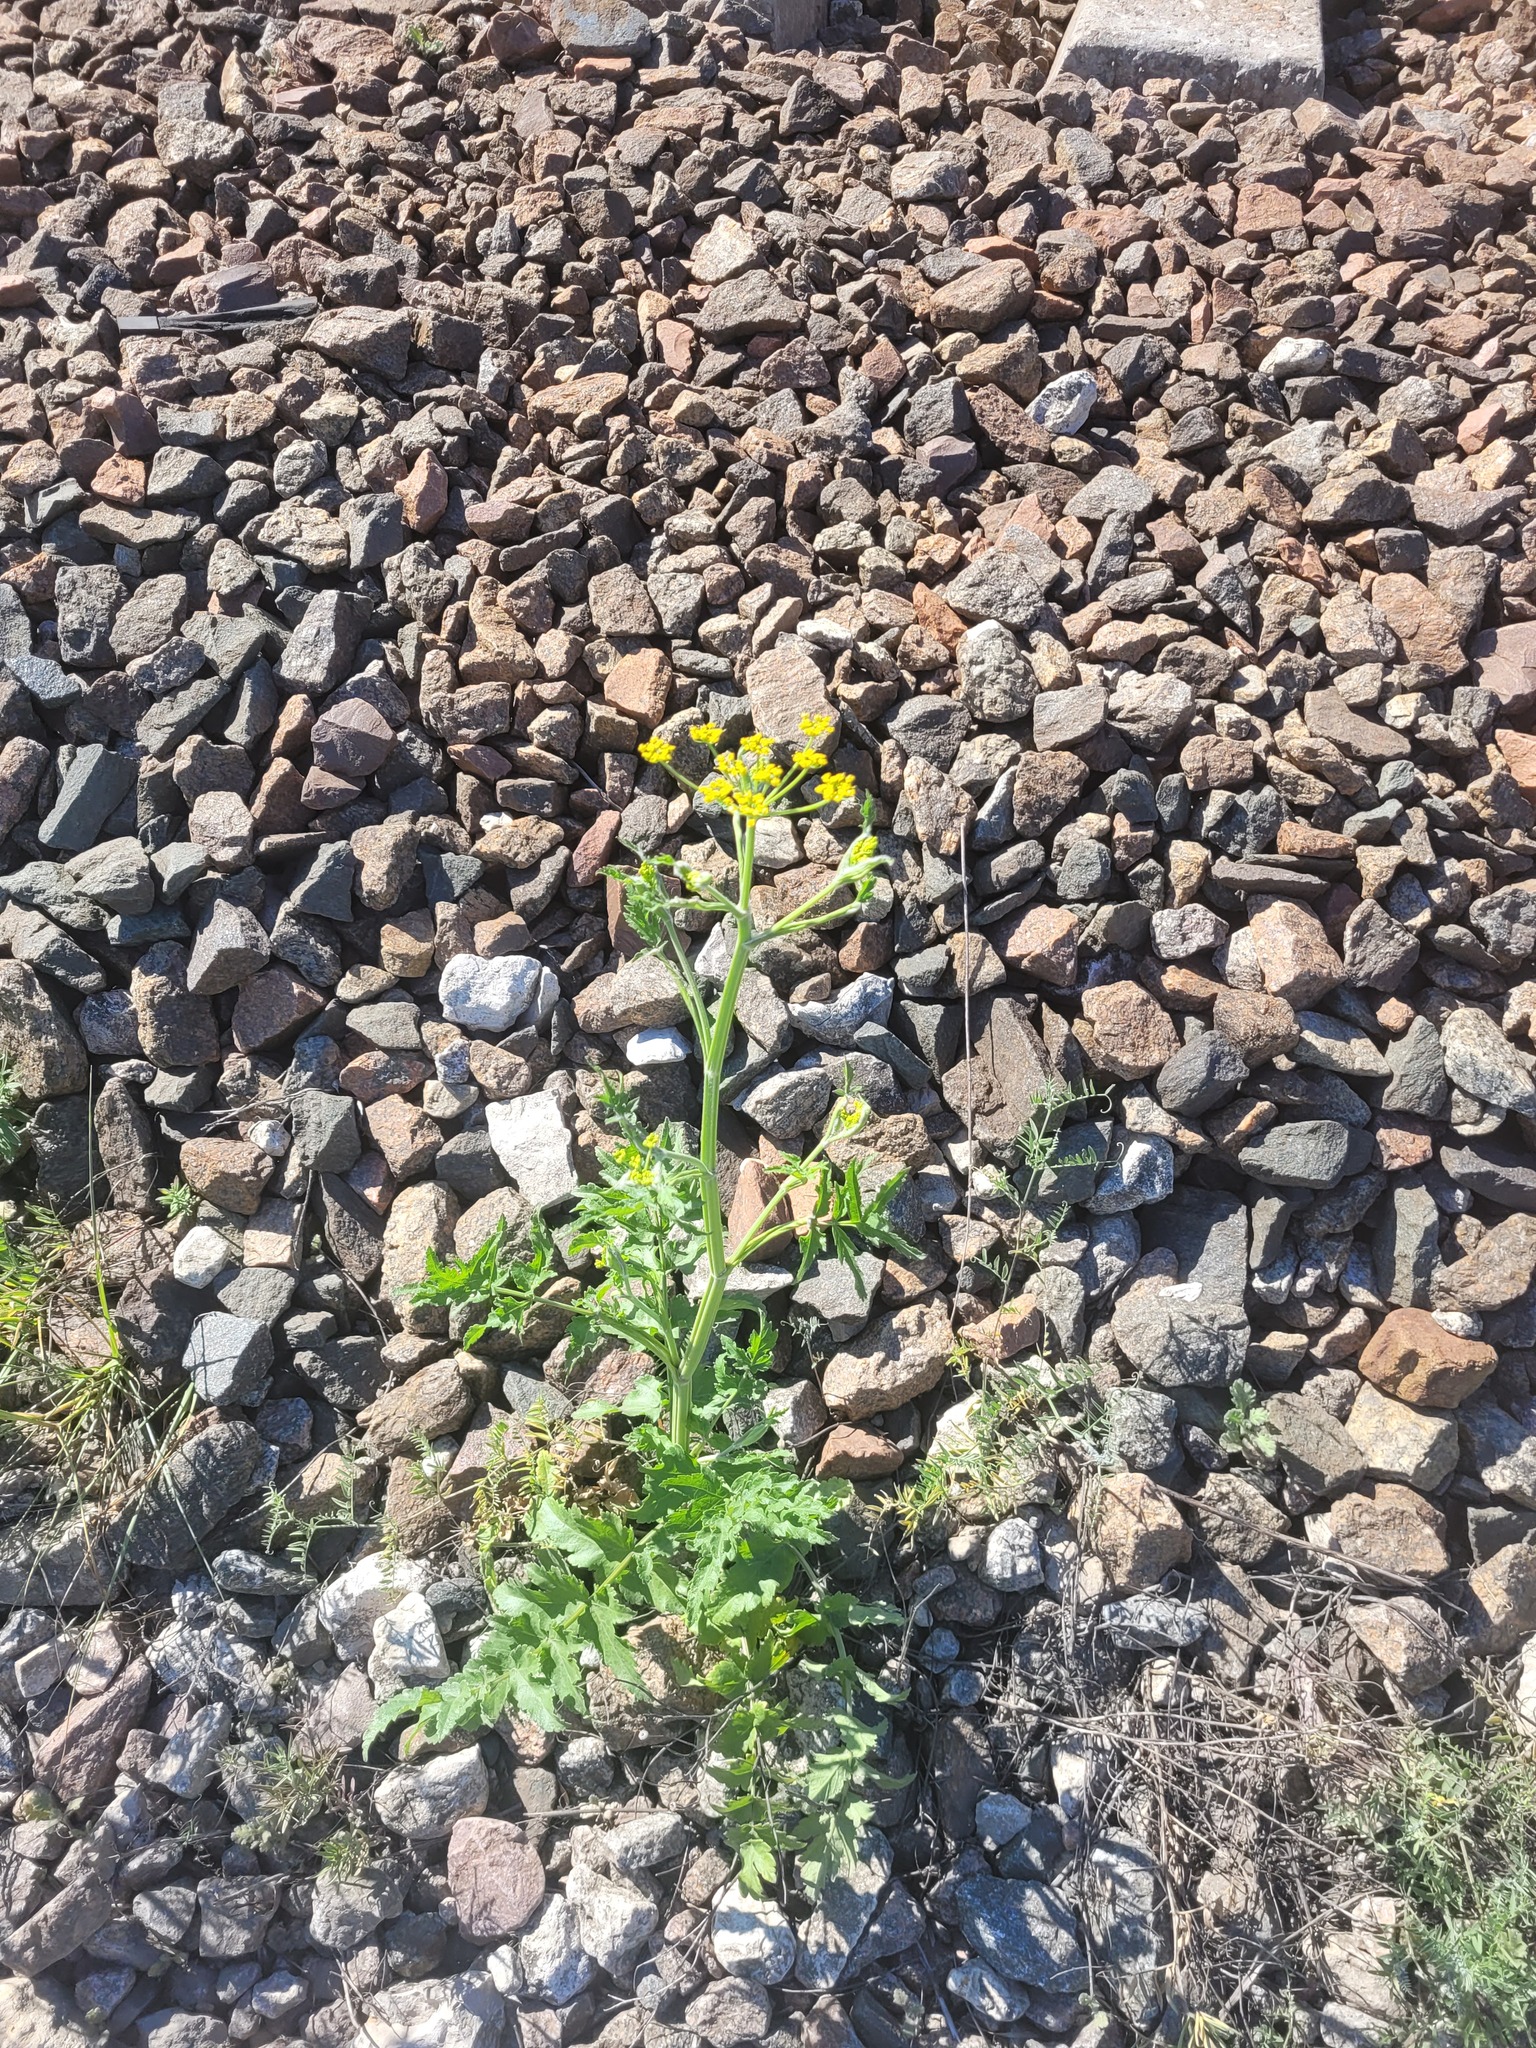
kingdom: Plantae
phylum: Tracheophyta
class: Magnoliopsida
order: Apiales
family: Apiaceae
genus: Pastinaca
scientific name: Pastinaca sativa
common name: Wild parsnip
